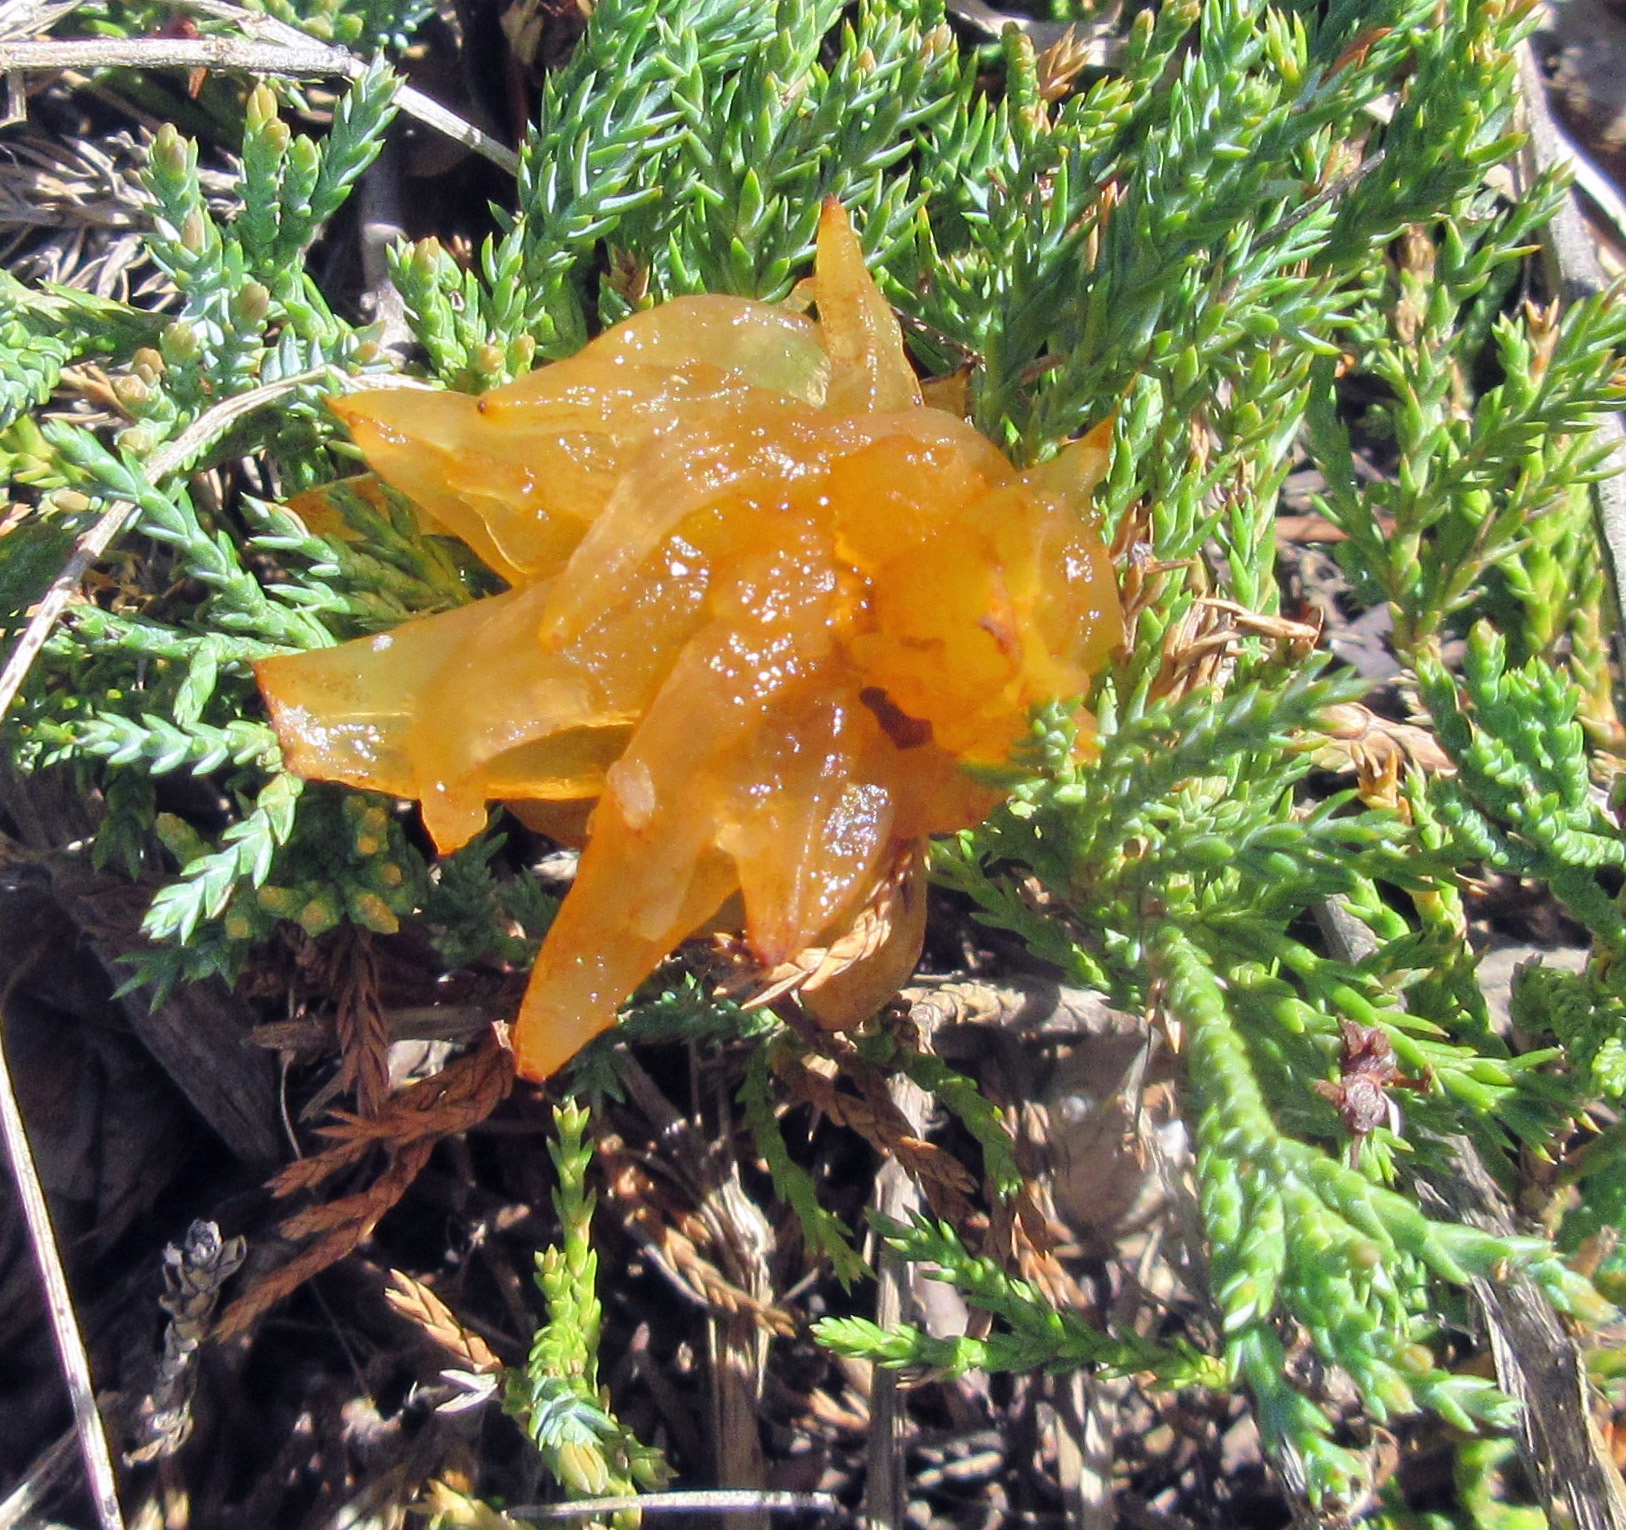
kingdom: Fungi
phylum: Basidiomycota
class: Pucciniomycetes
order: Pucciniales
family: Gymnosporangiaceae
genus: Gymnosporangium
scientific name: Gymnosporangium juniperi-virginianae
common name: Juniper-apple rust
